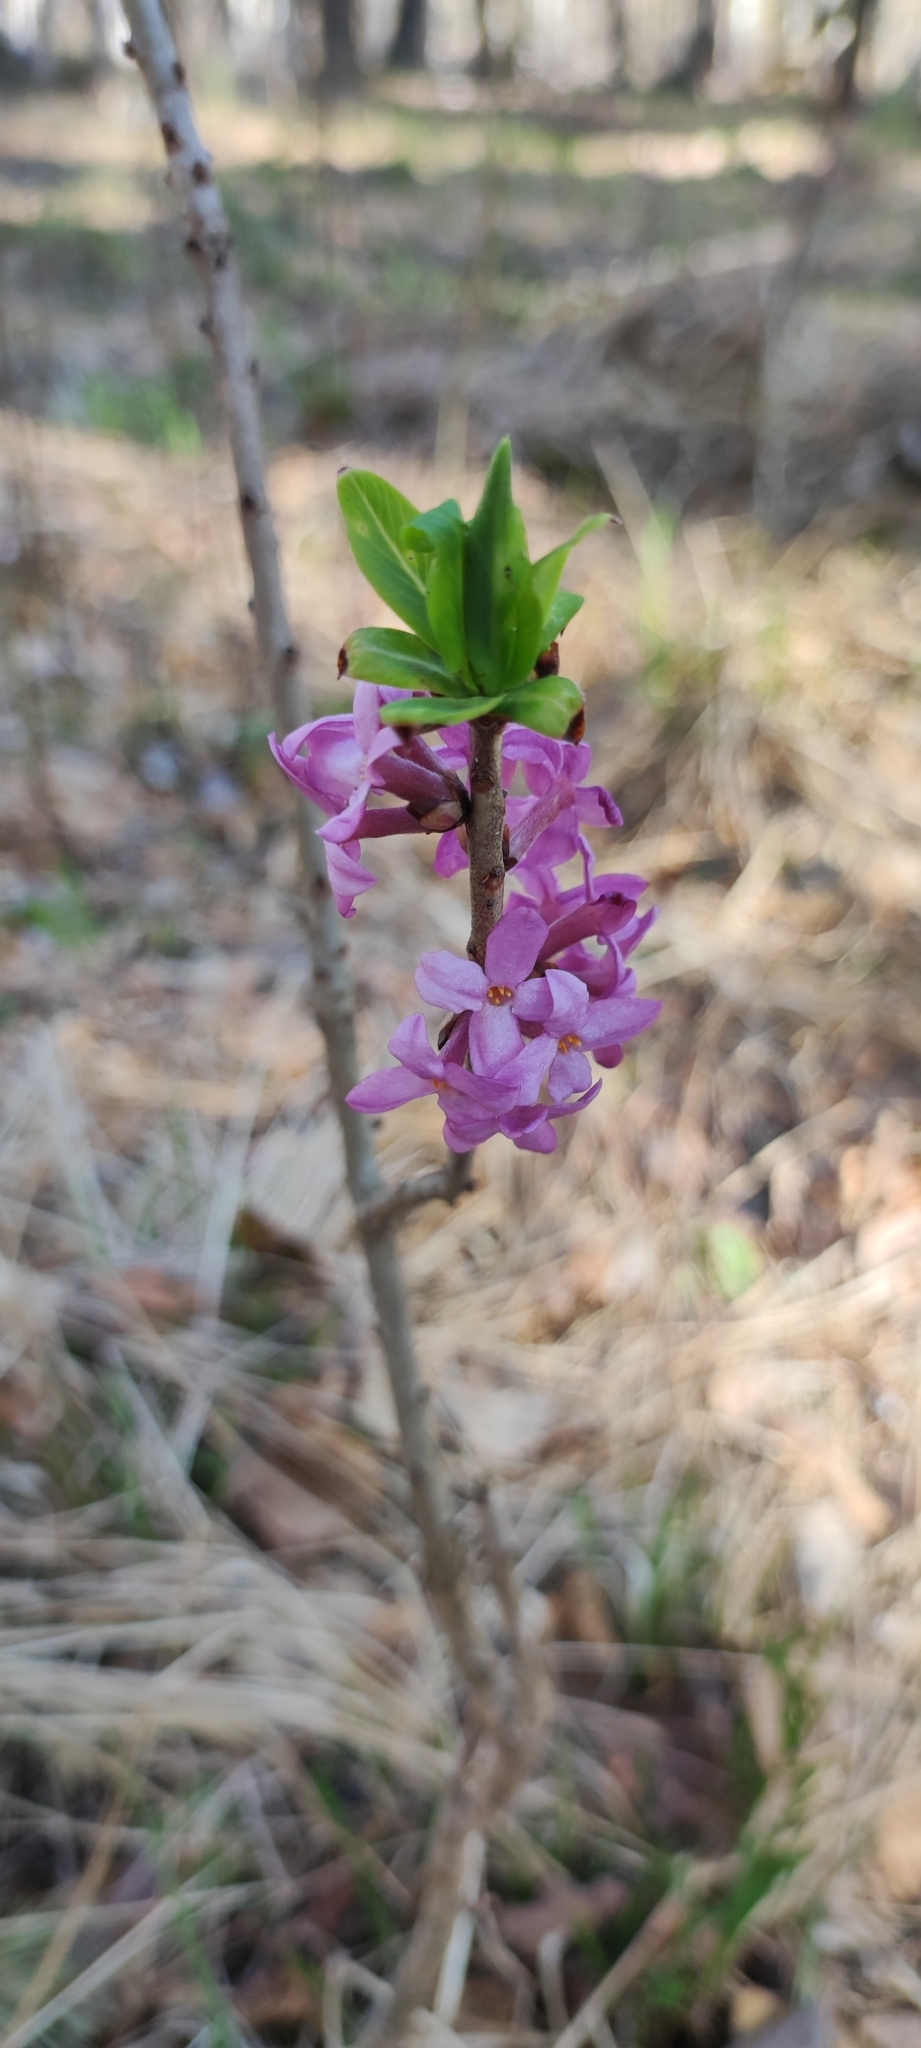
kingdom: Plantae
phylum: Tracheophyta
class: Magnoliopsida
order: Malvales
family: Thymelaeaceae
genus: Daphne
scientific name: Daphne mezereum
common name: Mezereon
